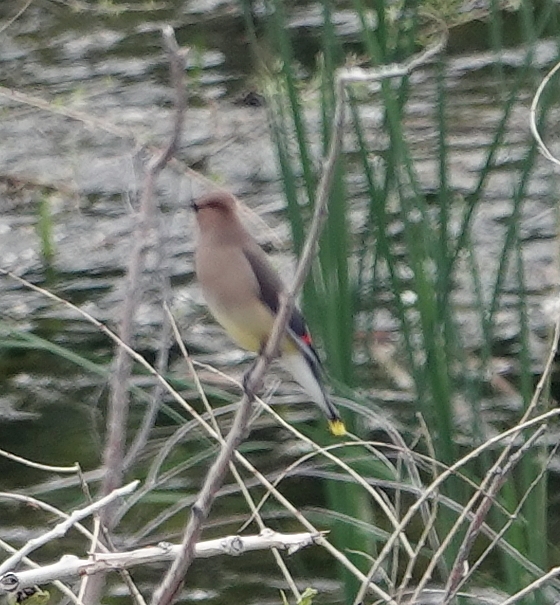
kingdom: Animalia
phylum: Chordata
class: Aves
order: Passeriformes
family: Bombycillidae
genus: Bombycilla
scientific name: Bombycilla cedrorum
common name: Cedar waxwing
